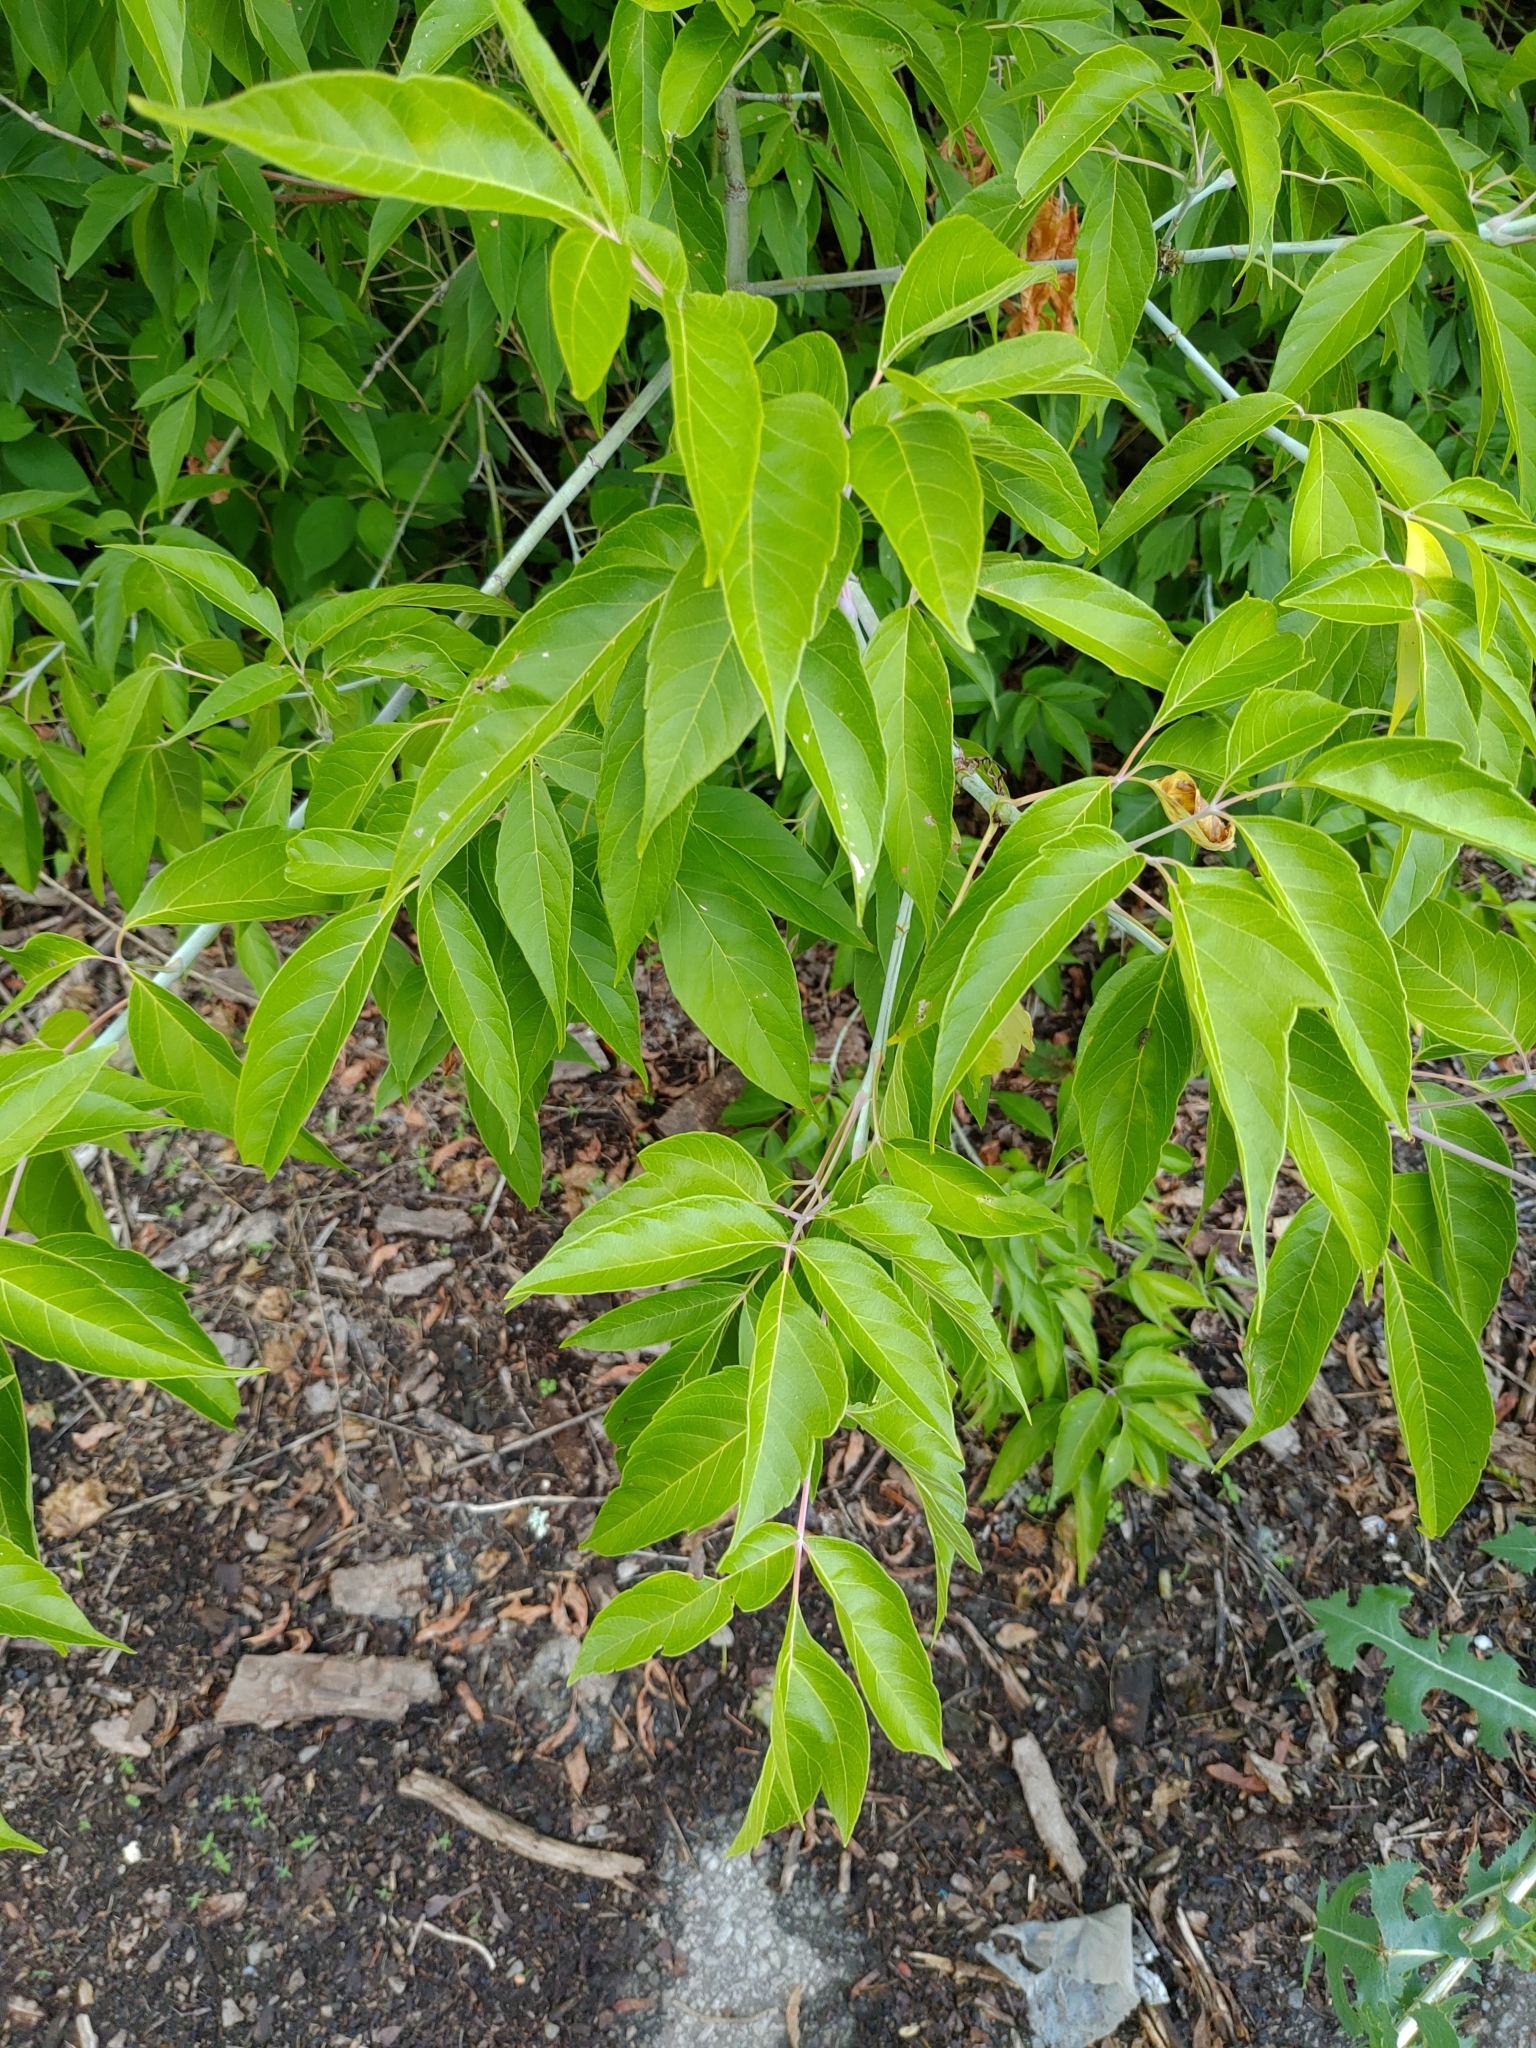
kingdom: Plantae
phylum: Tracheophyta
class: Magnoliopsida
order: Sapindales
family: Sapindaceae
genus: Acer
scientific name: Acer negundo
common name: Ashleaf maple
